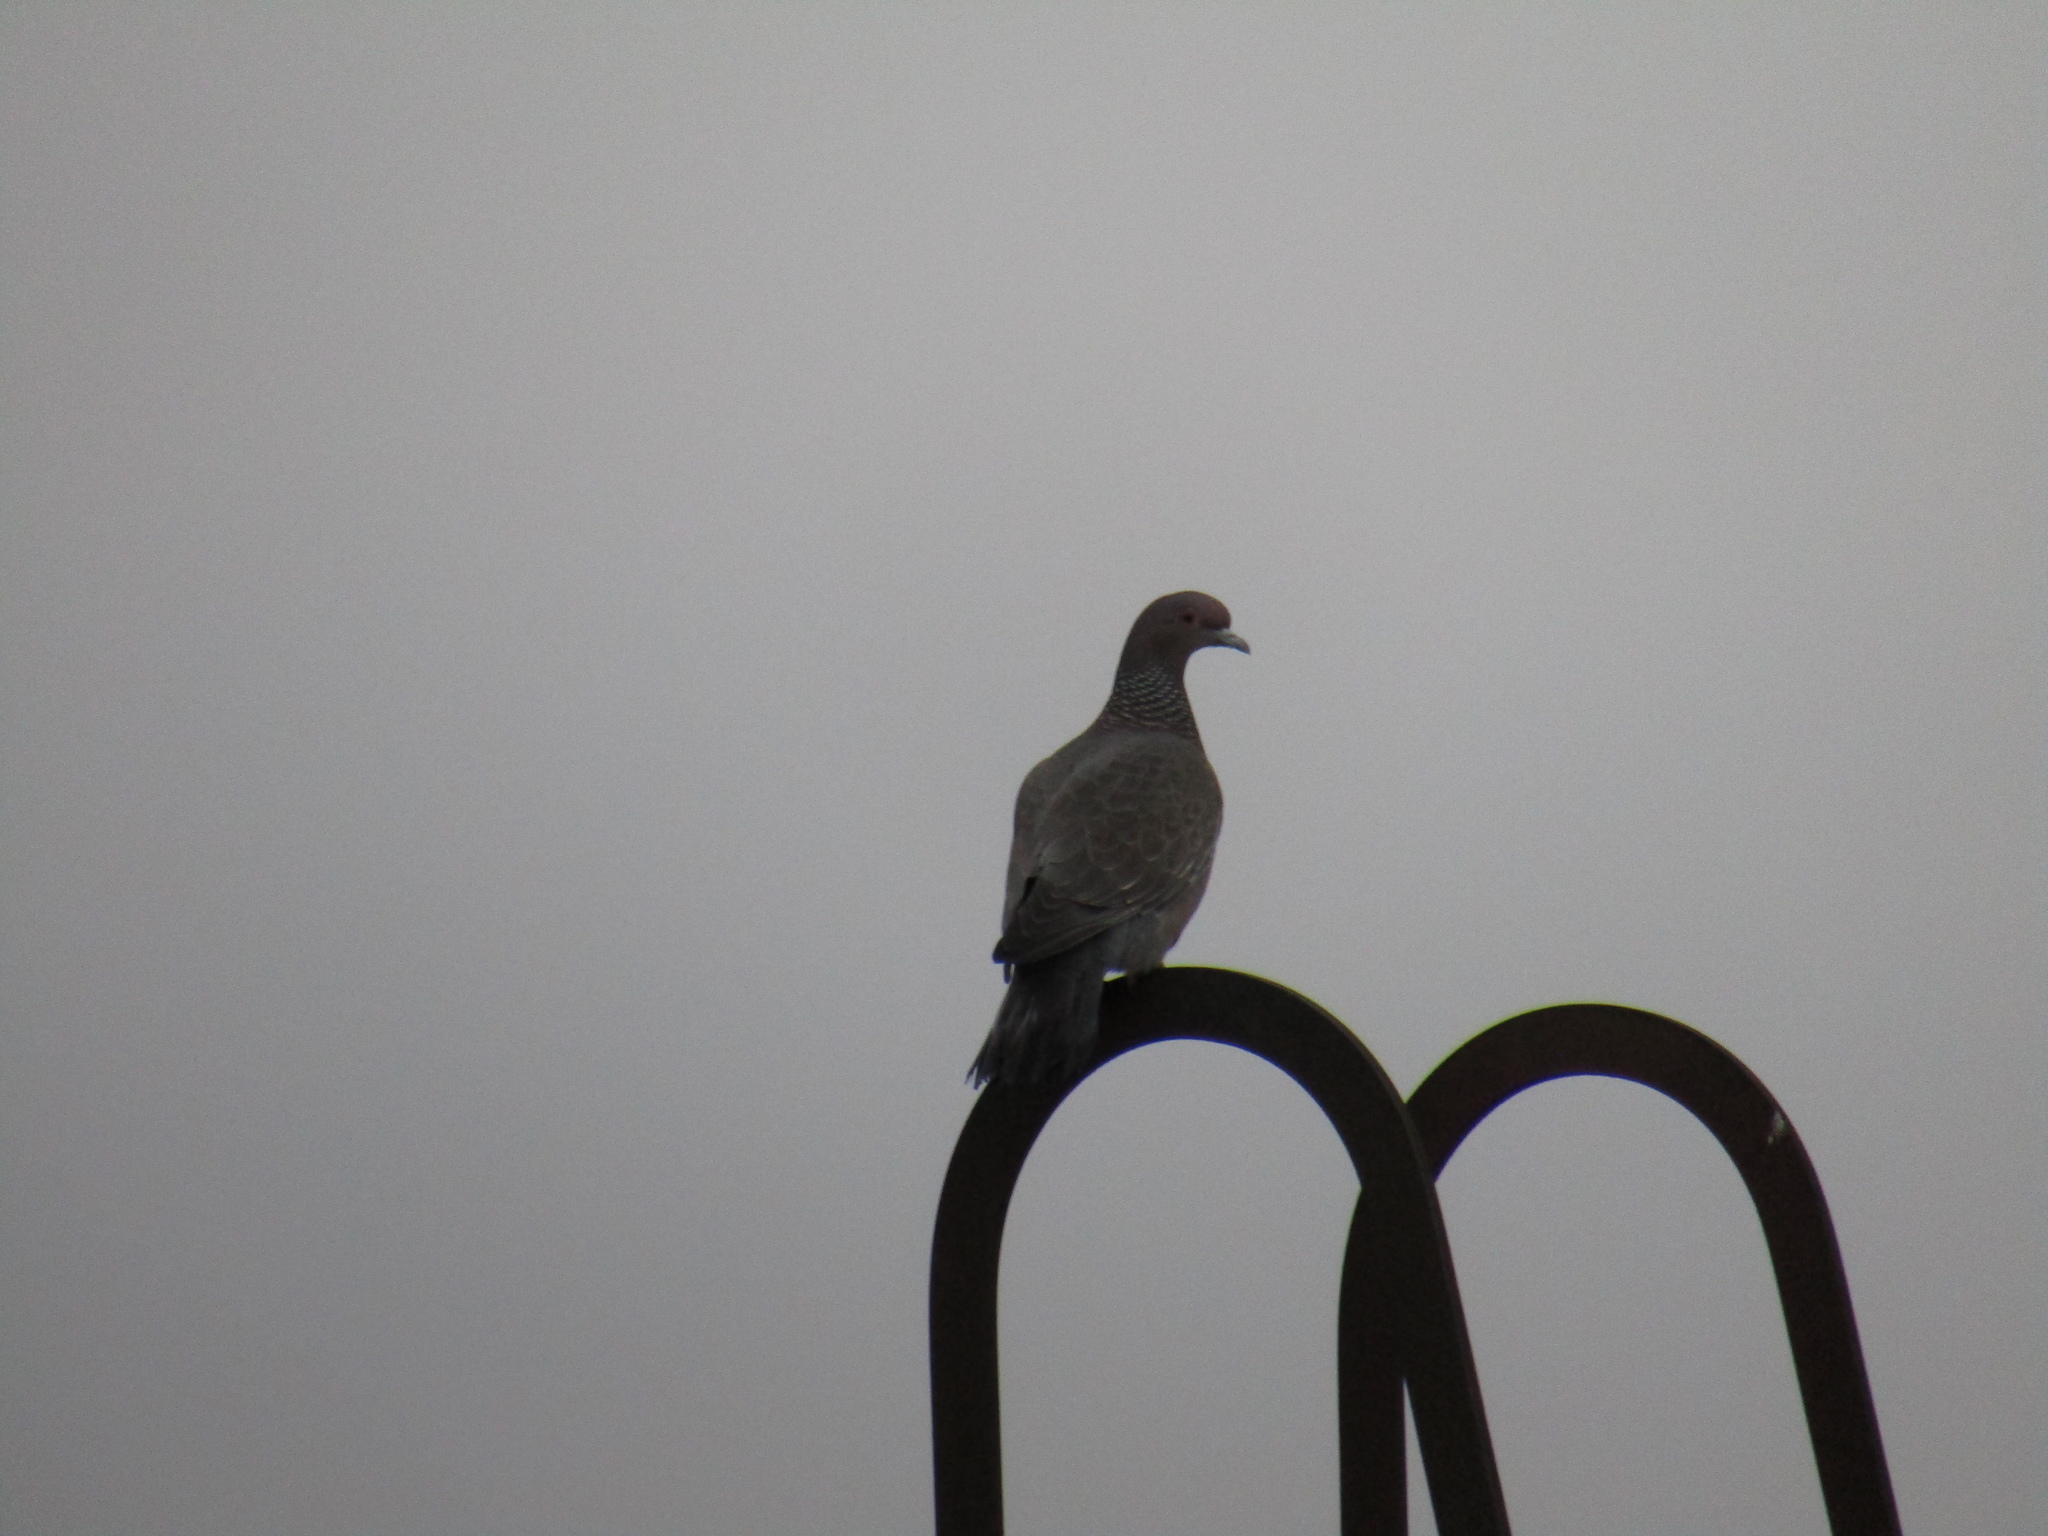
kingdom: Animalia
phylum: Chordata
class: Aves
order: Columbiformes
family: Columbidae
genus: Patagioenas
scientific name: Patagioenas picazuro
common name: Picazuro pigeon
